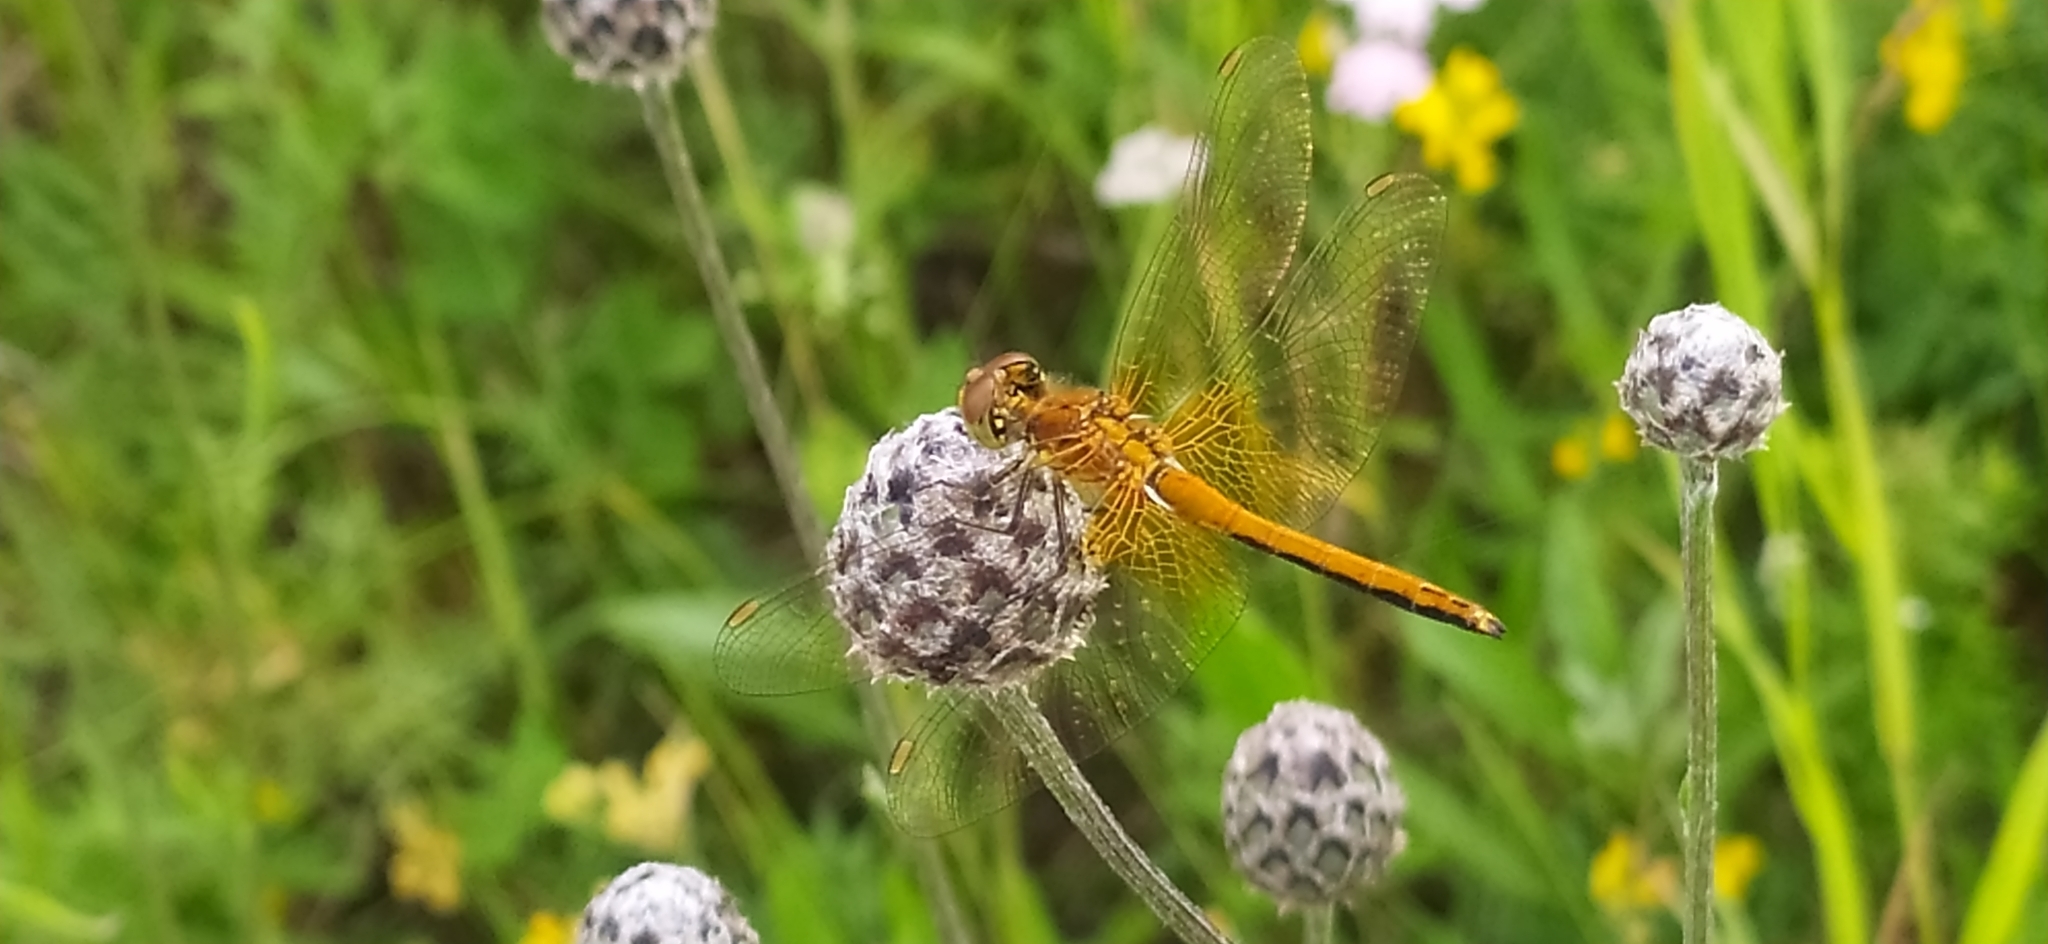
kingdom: Animalia
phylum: Arthropoda
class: Insecta
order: Odonata
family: Libellulidae
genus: Sympetrum
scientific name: Sympetrum flaveolum
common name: Yellow-winged darter
